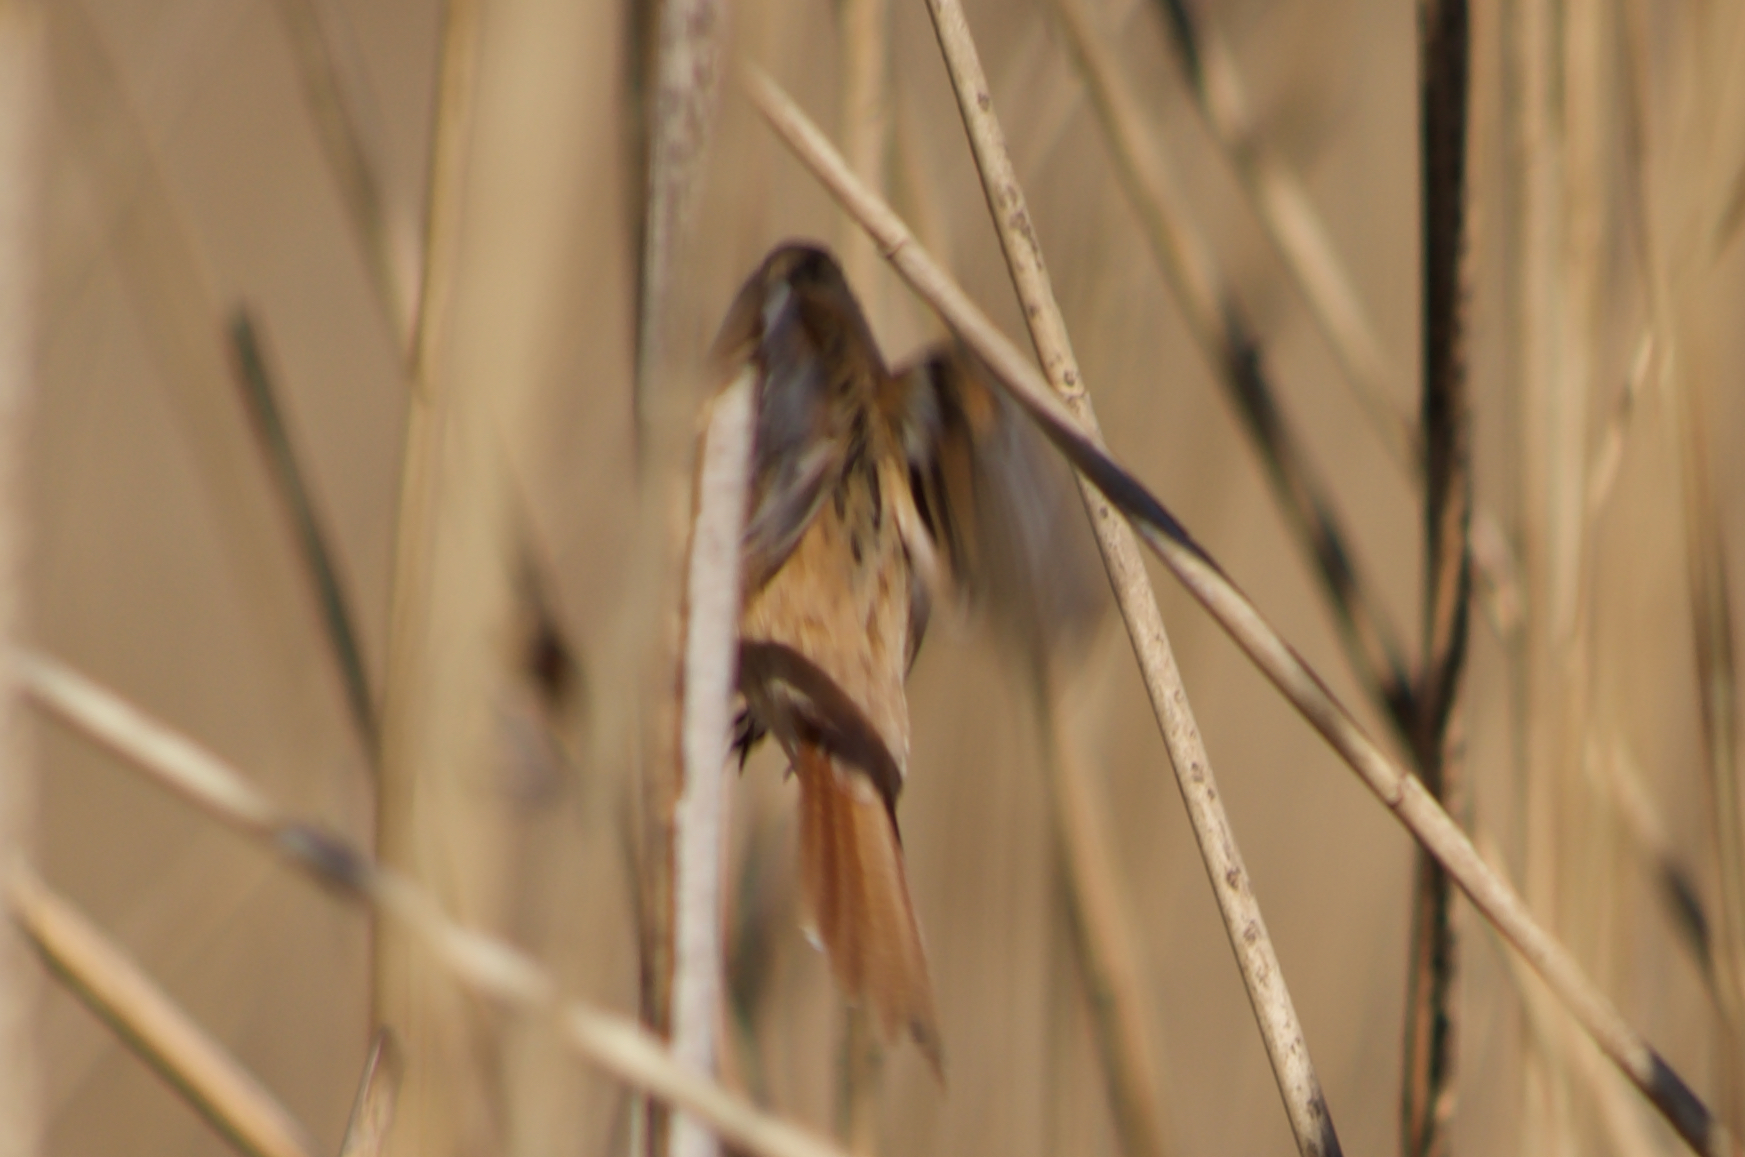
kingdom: Animalia
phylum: Chordata
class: Aves
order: Passeriformes
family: Panuridae
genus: Panurus
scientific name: Panurus biarmicus
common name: Bearded reedling
